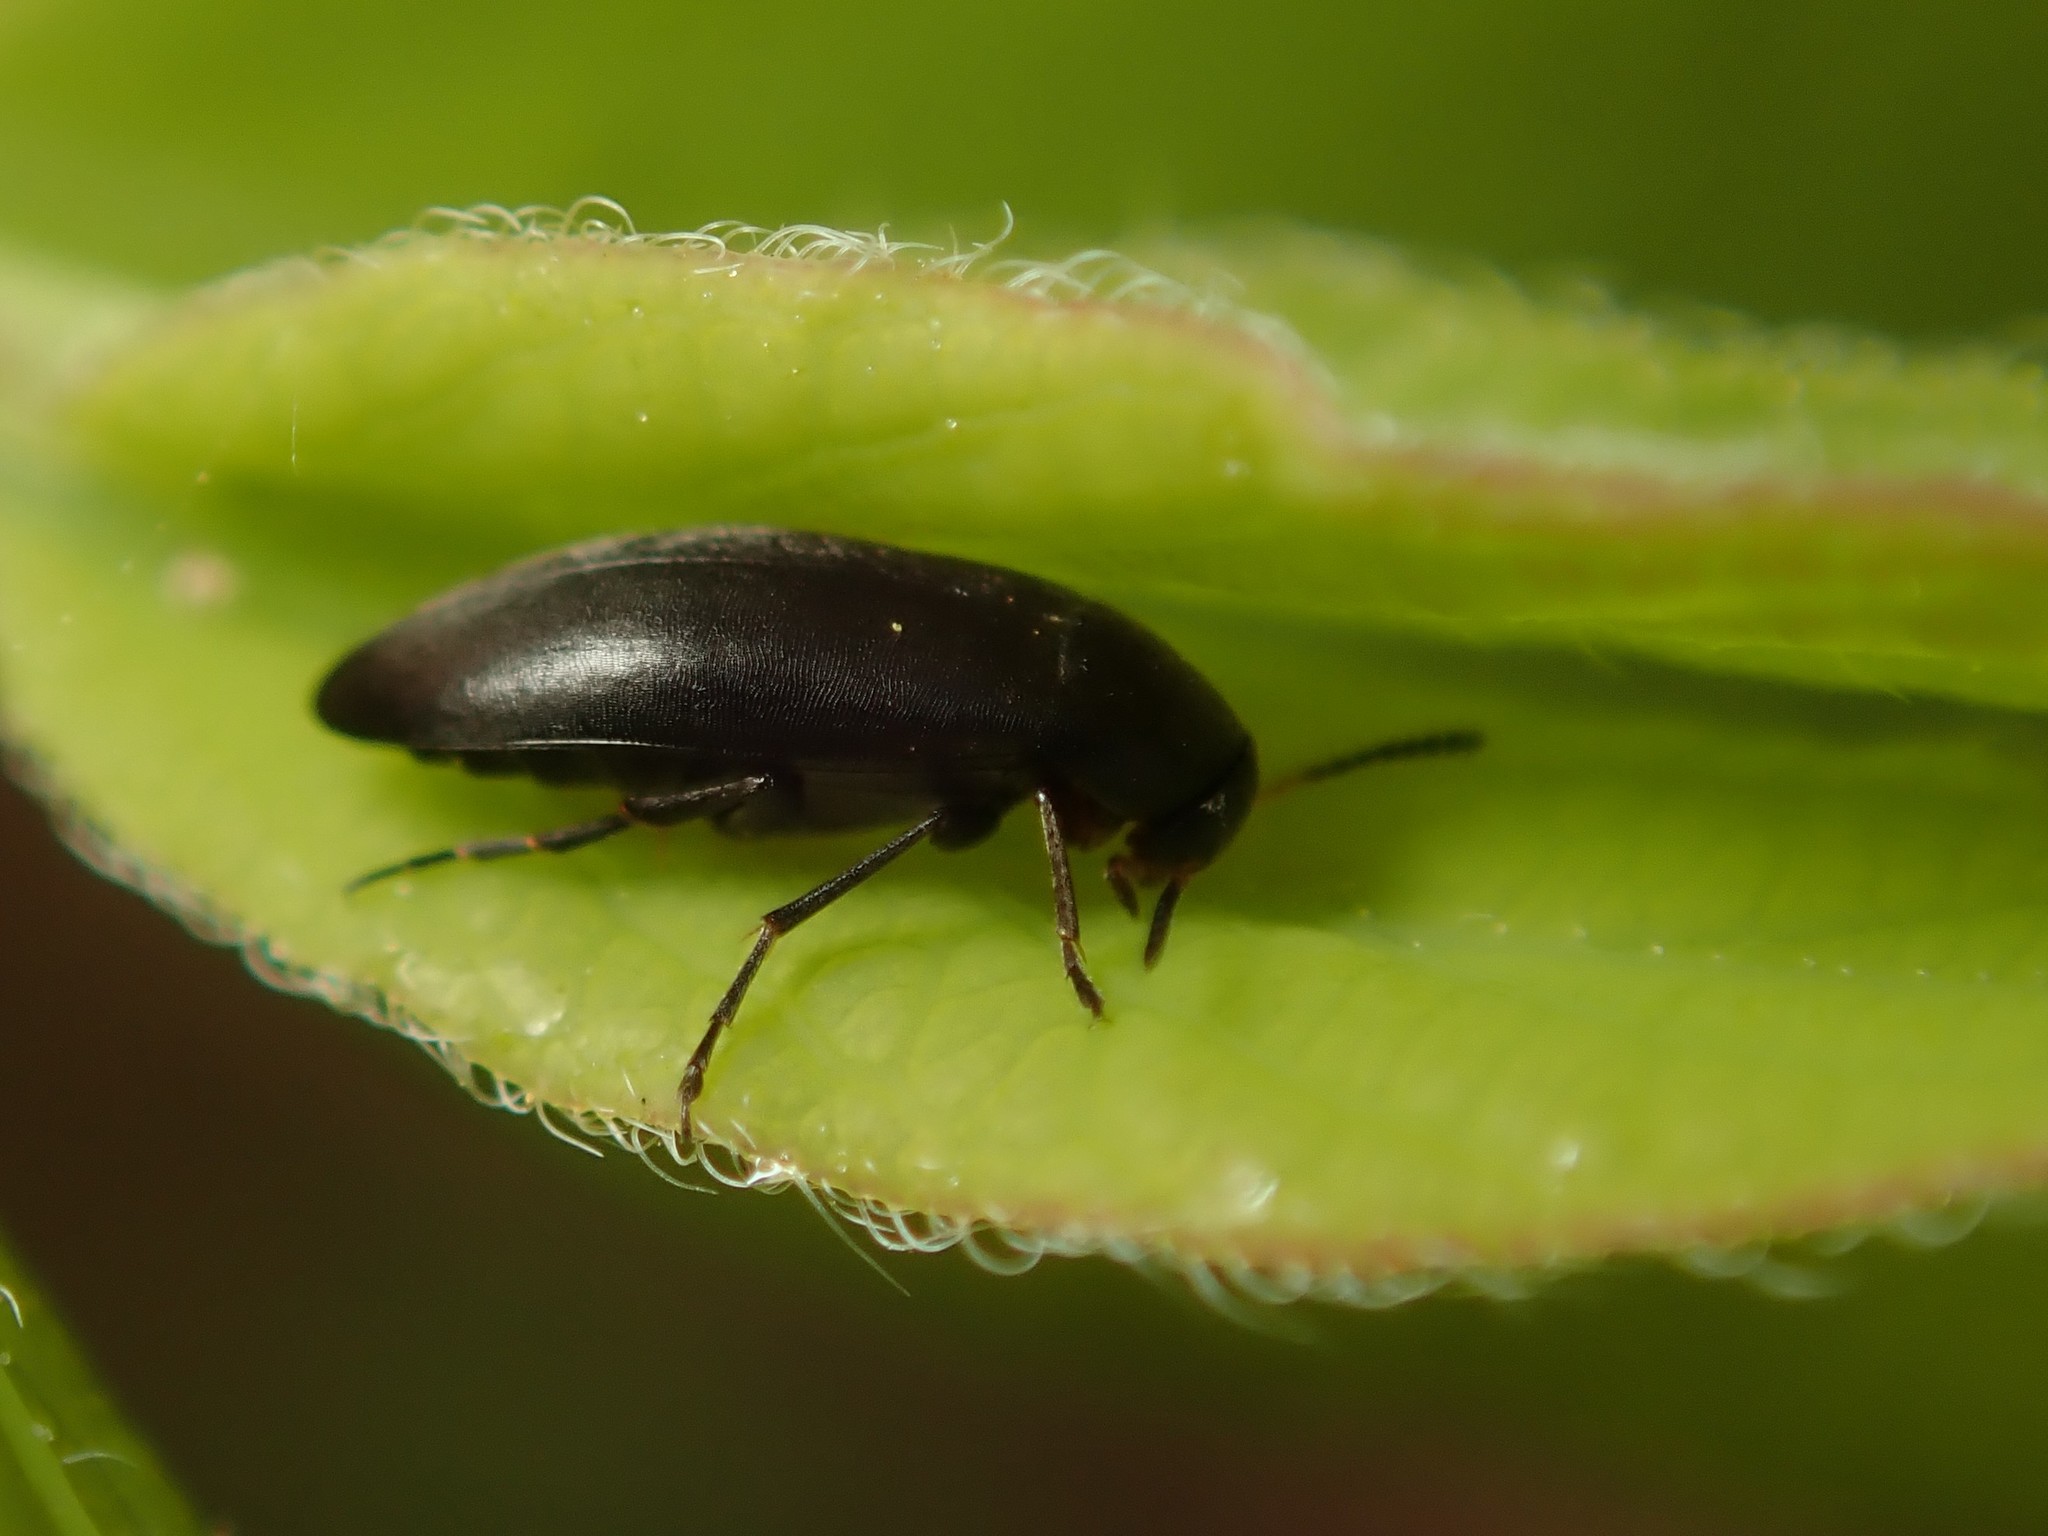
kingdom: Animalia
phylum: Arthropoda
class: Insecta
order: Coleoptera
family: Scraptiidae
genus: Anaspis
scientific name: Anaspis frontalis
